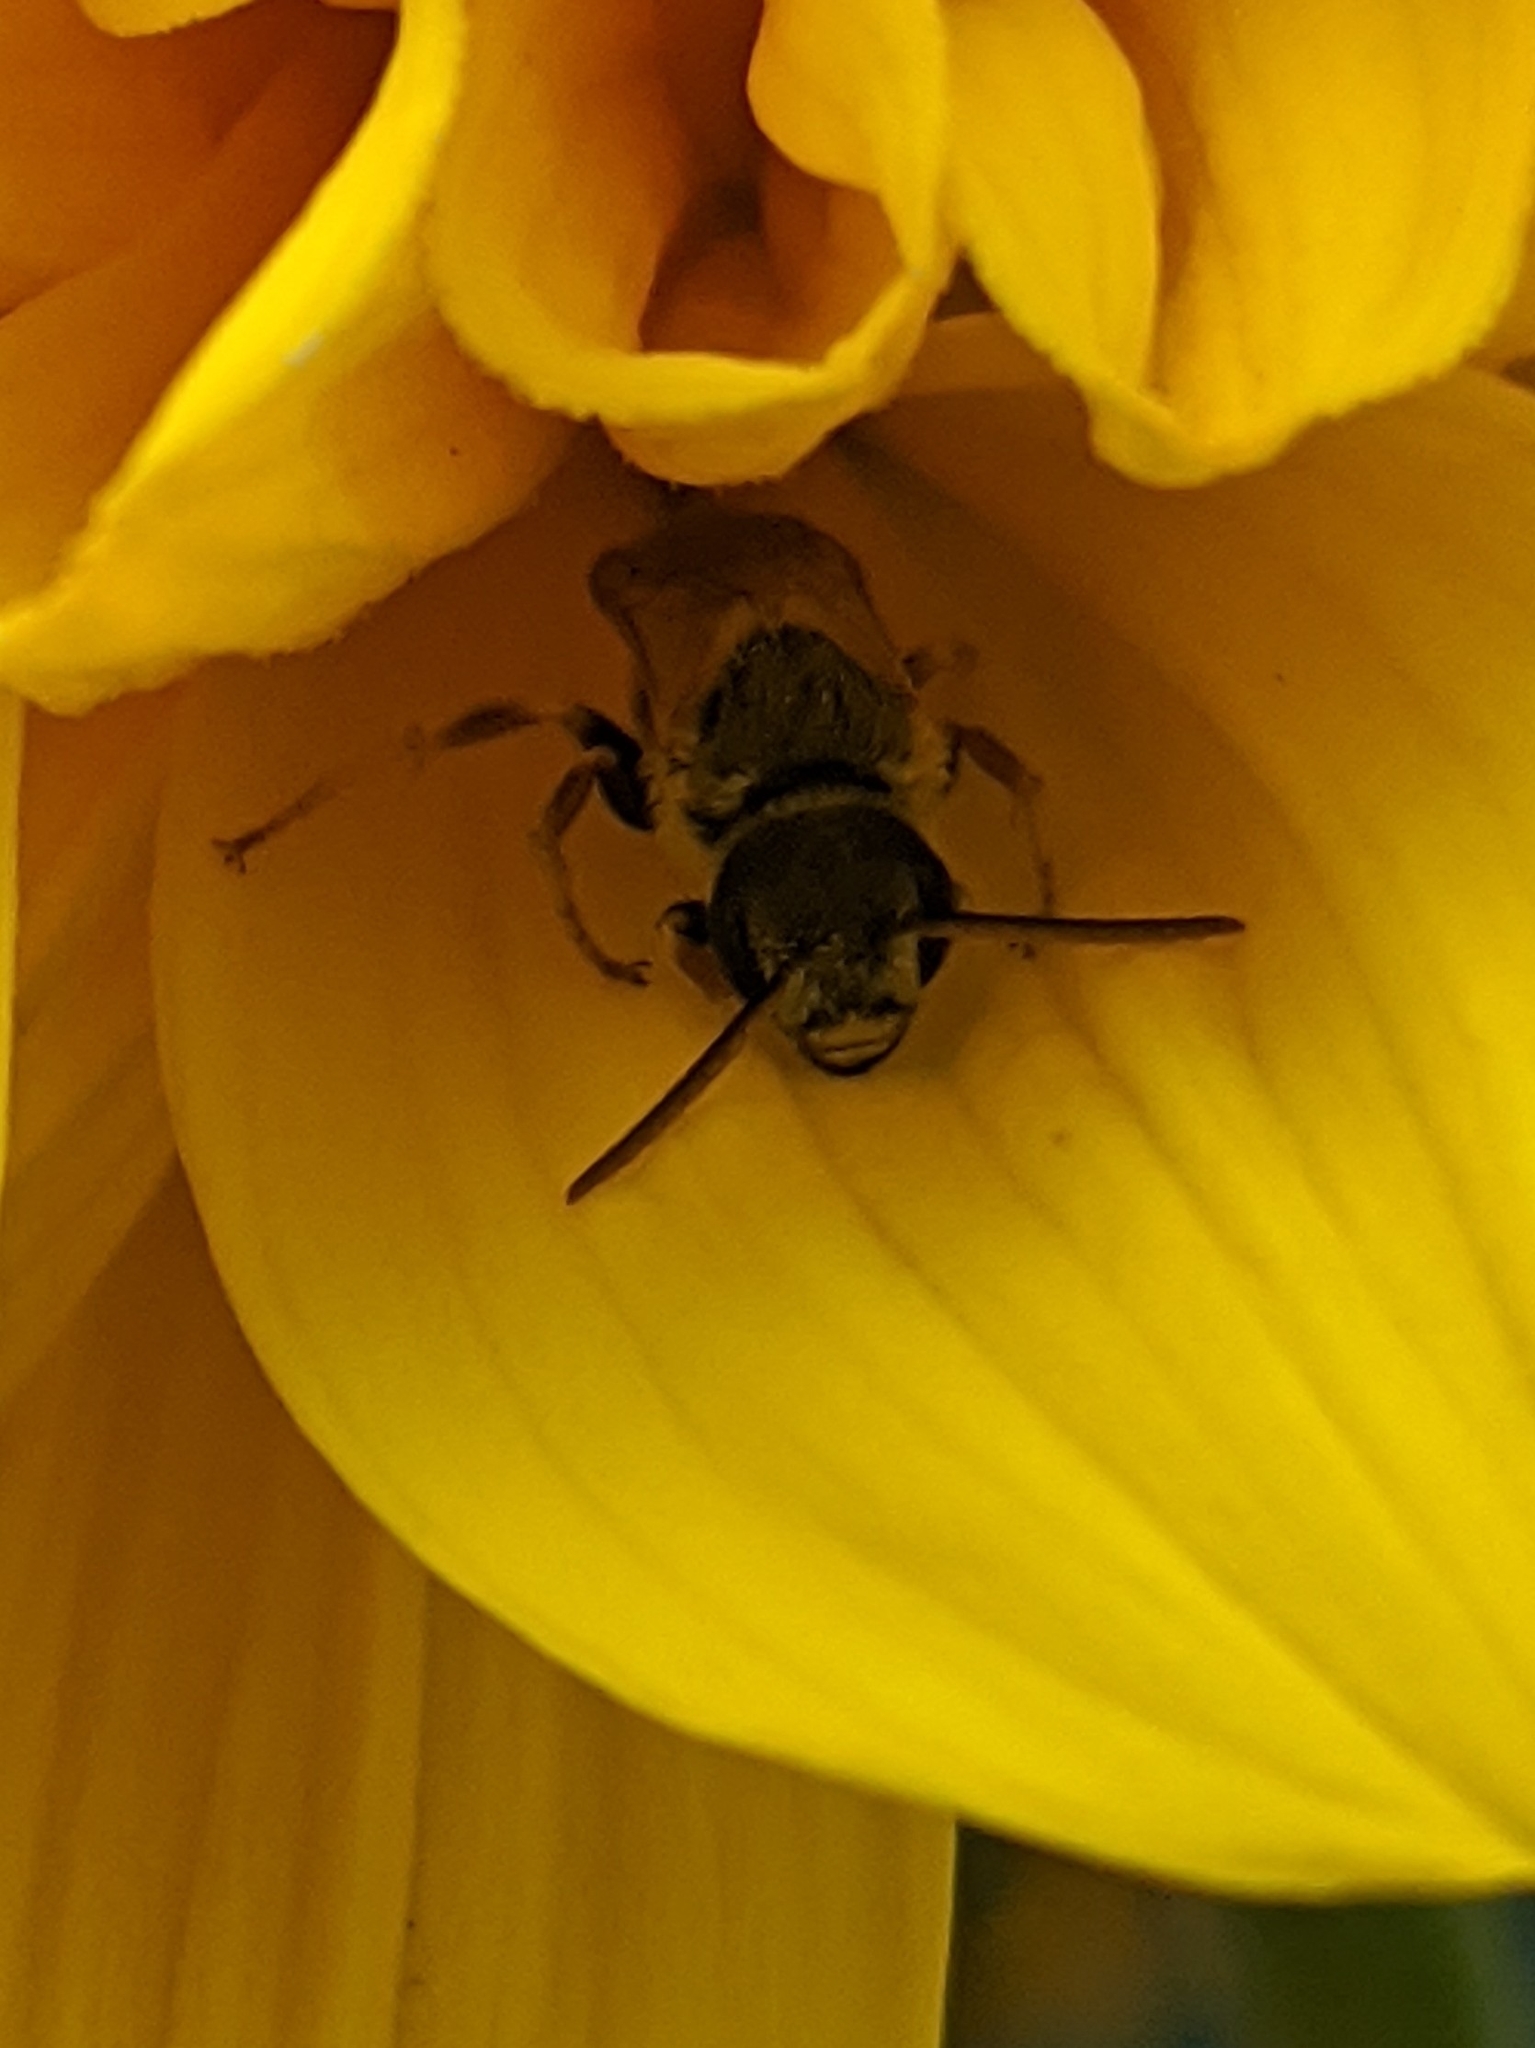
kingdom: Animalia
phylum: Arthropoda
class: Insecta
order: Hymenoptera
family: Halictidae
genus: Halictus
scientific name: Halictus ligatus
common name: Ligated furrow bee
